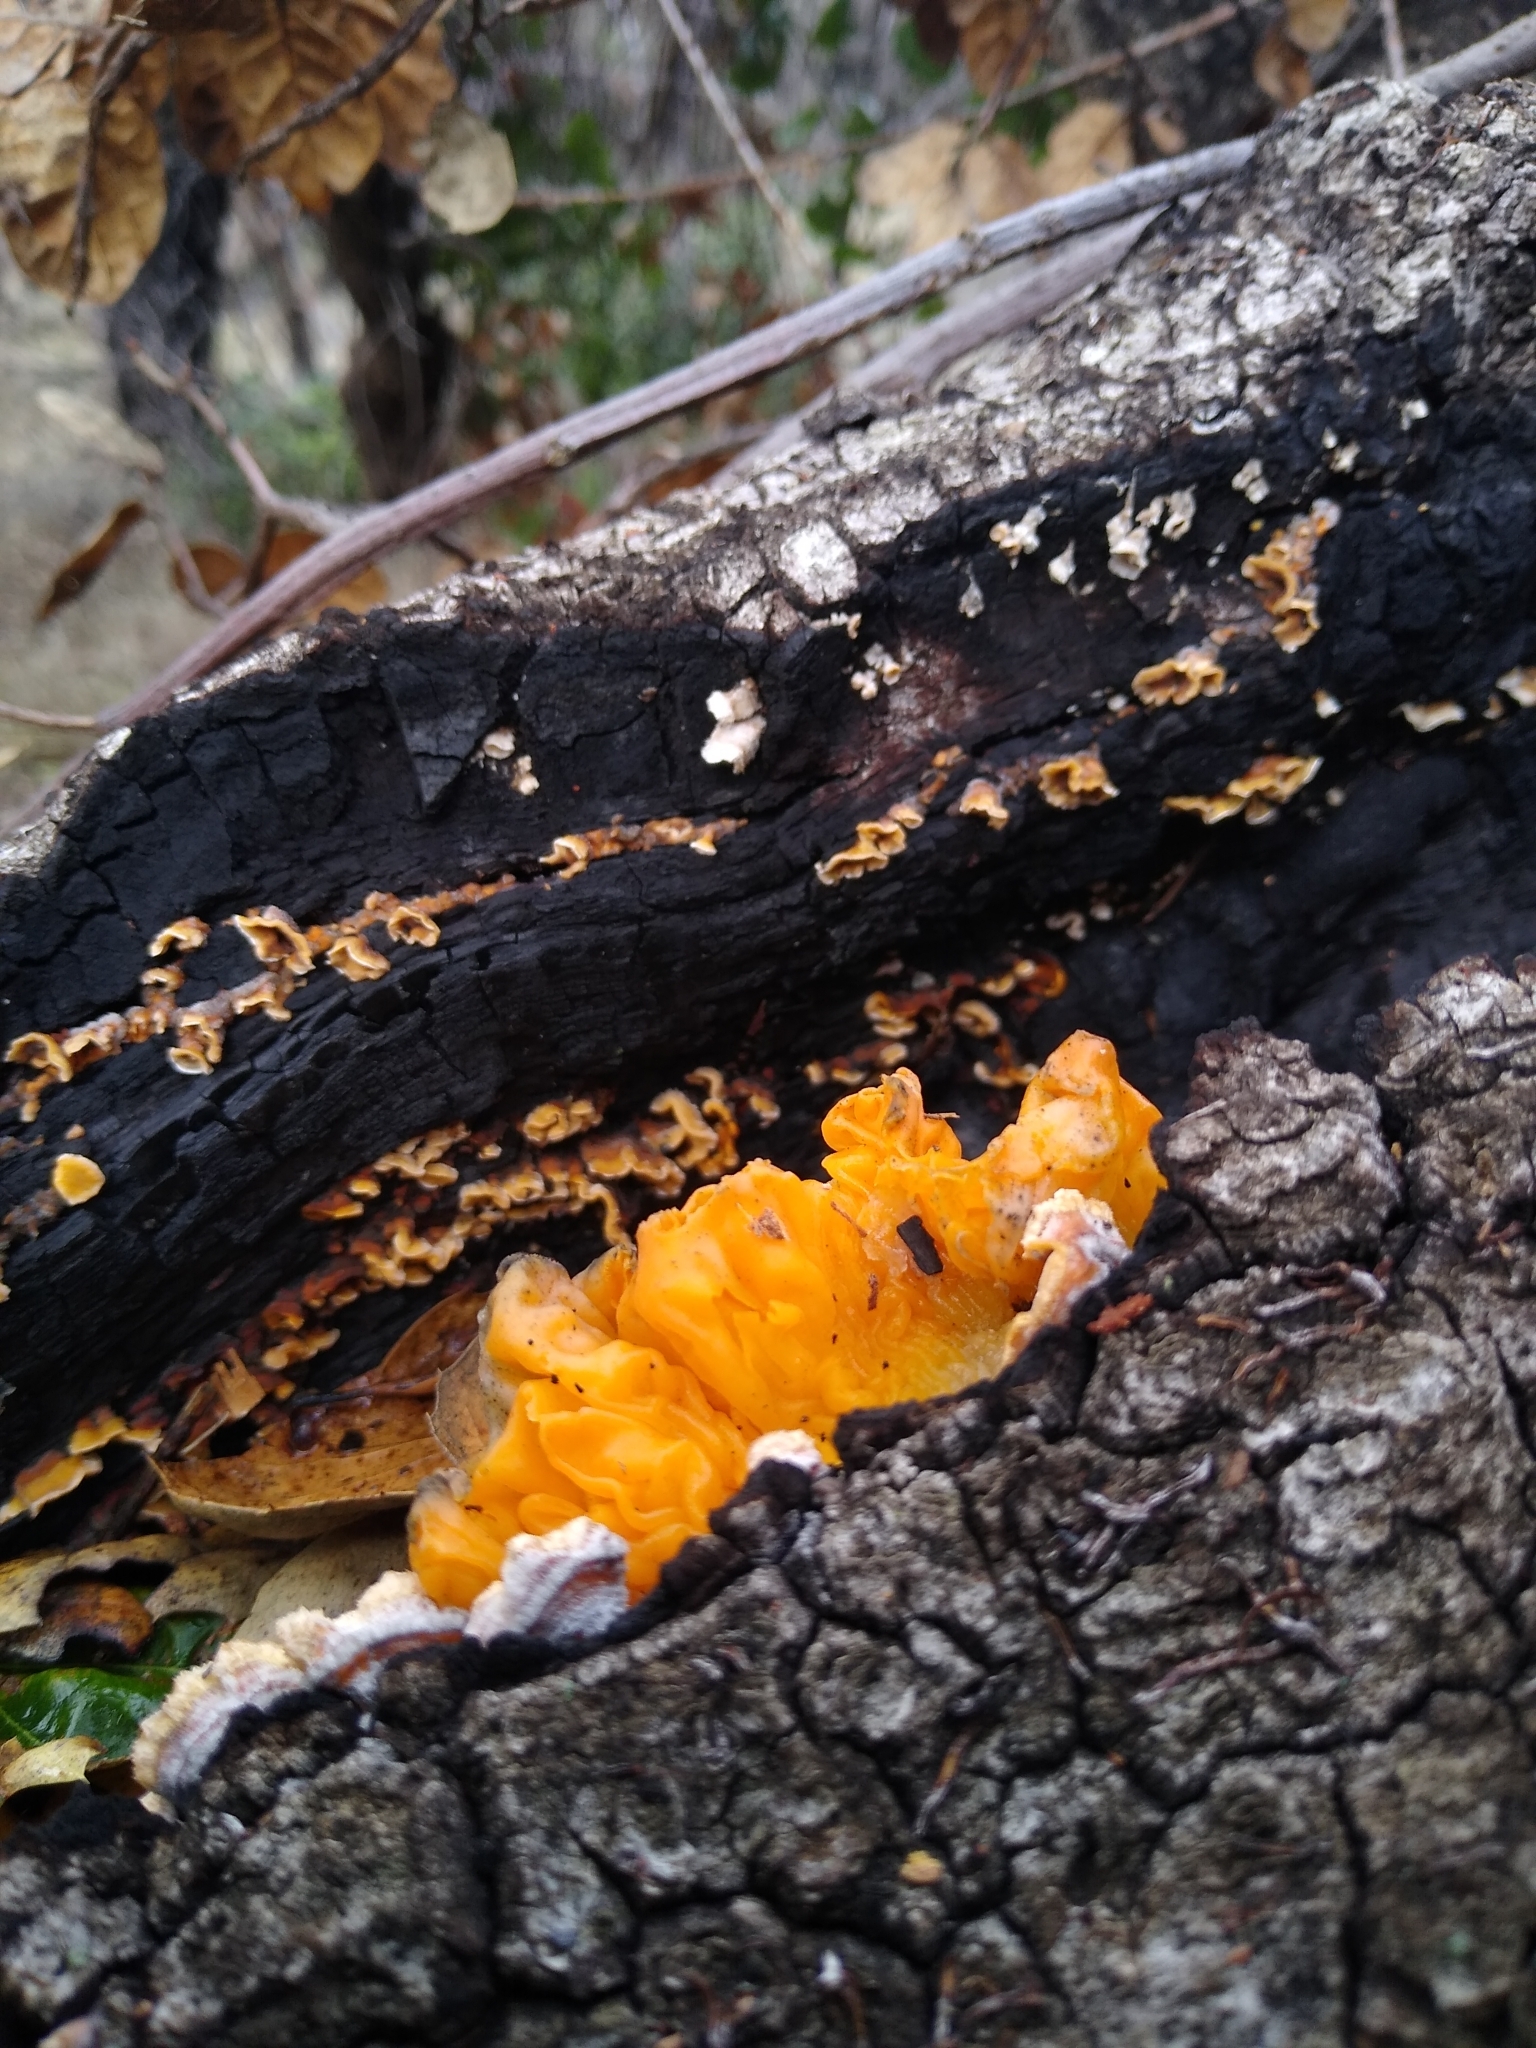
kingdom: Fungi
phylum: Basidiomycota
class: Tremellomycetes
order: Tremellales
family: Naemateliaceae
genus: Naematelia
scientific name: Naematelia aurantia
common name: Golden ear
